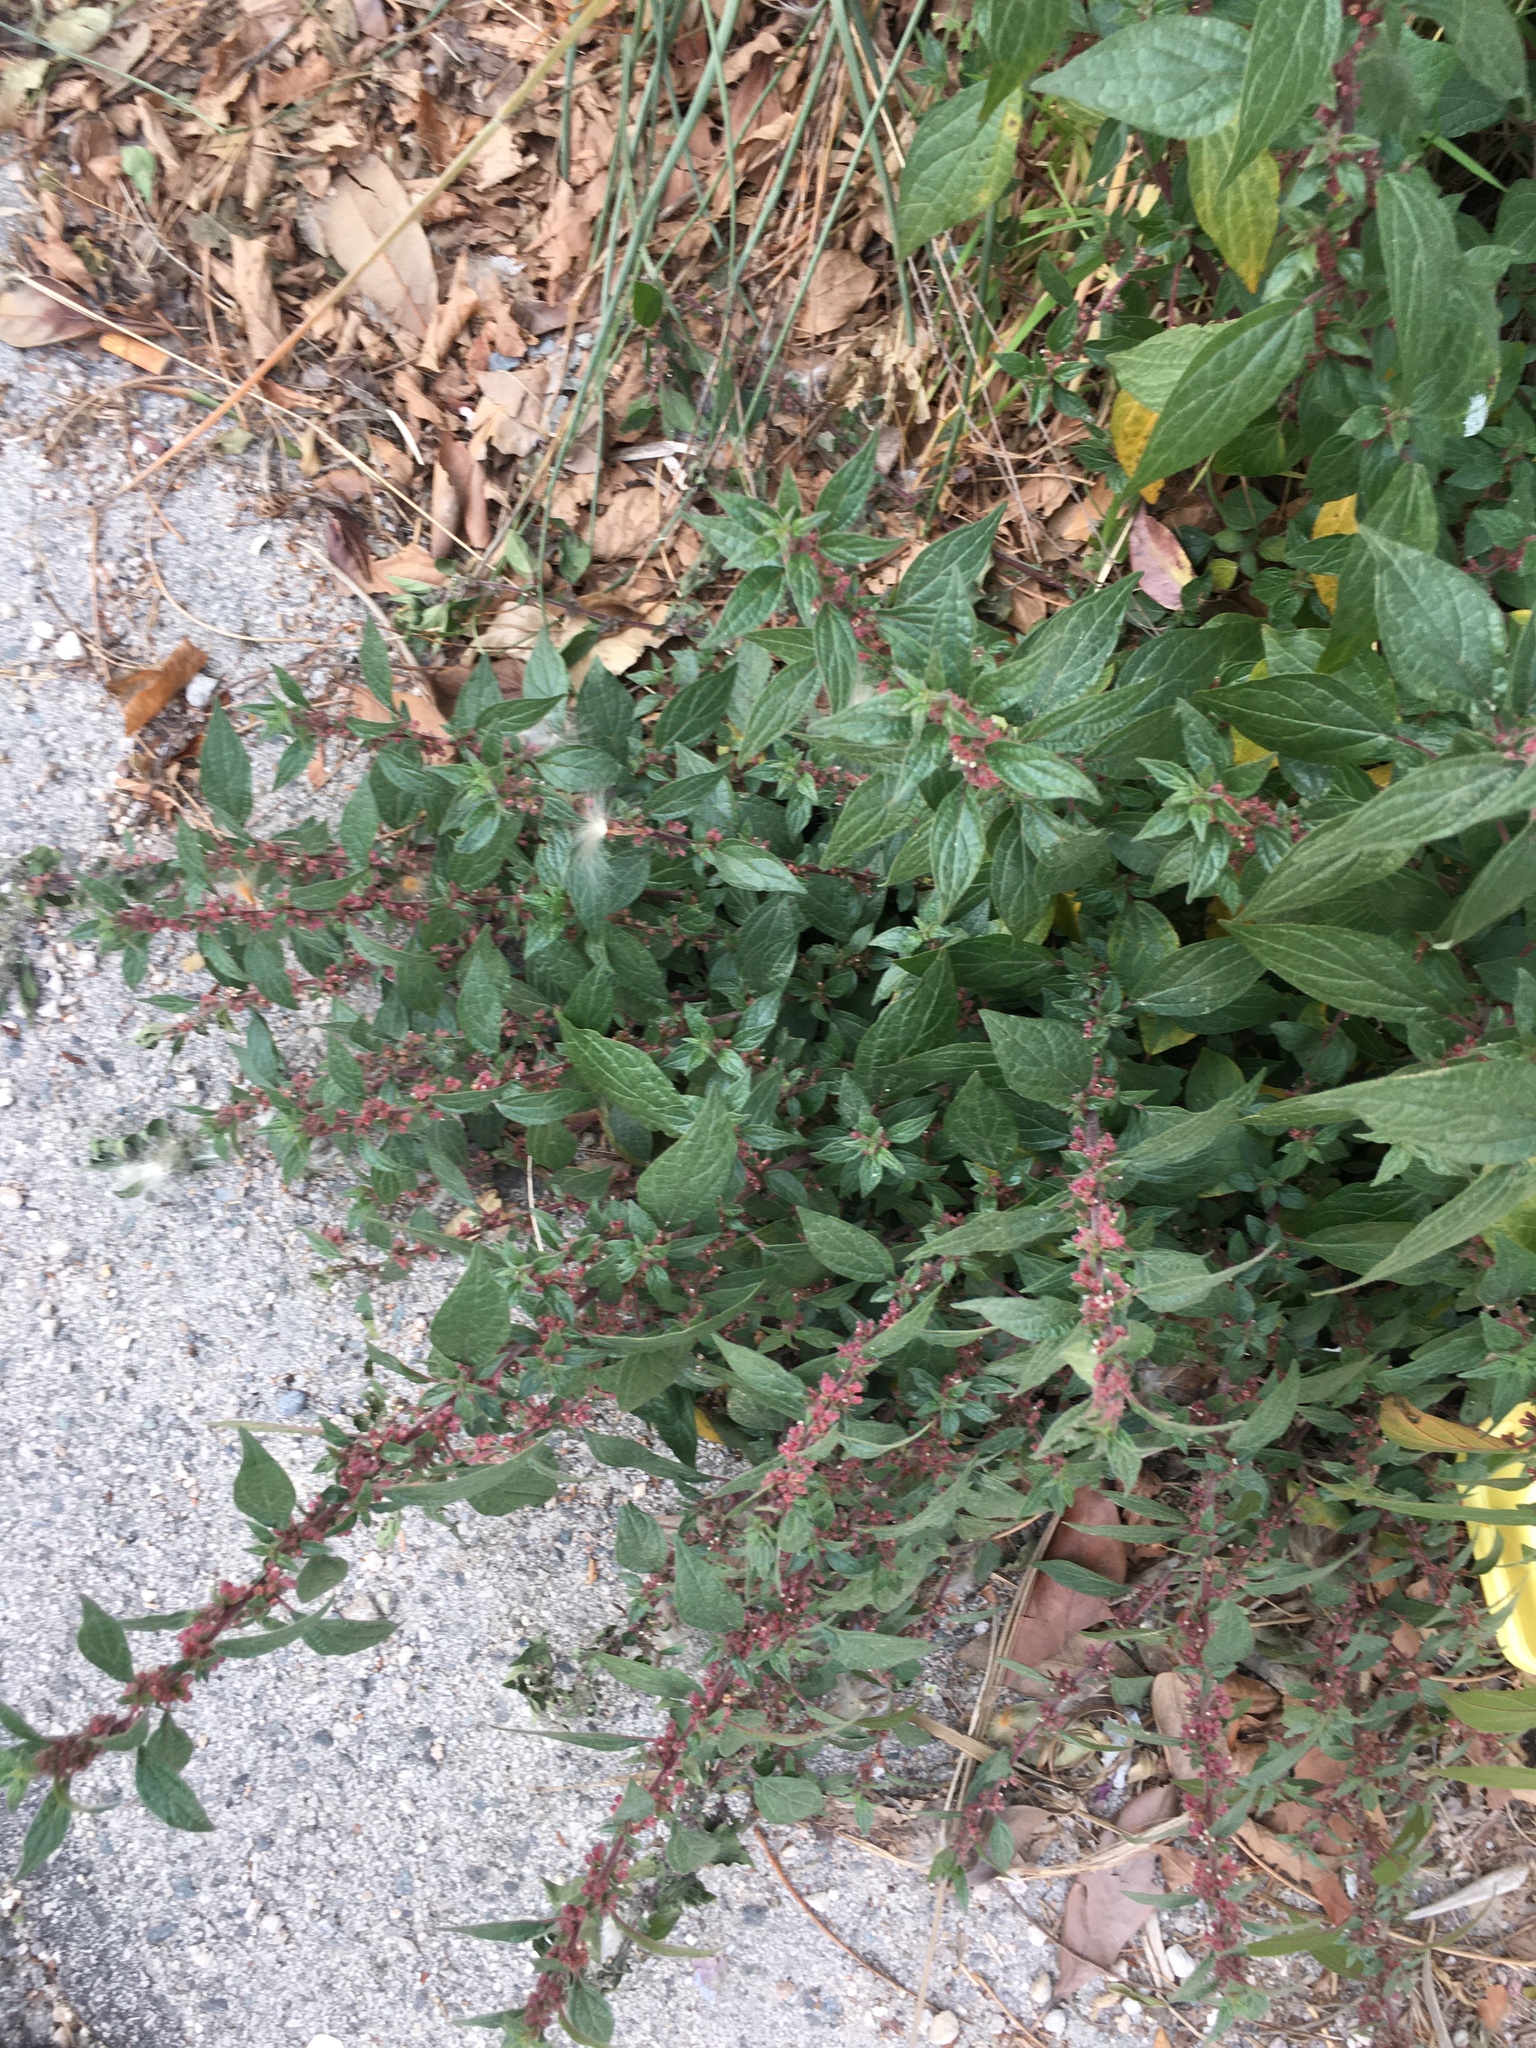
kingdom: Plantae
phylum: Tracheophyta
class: Magnoliopsida
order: Rosales
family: Urticaceae
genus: Parietaria
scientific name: Parietaria judaica
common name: Pellitory-of-the-wall
